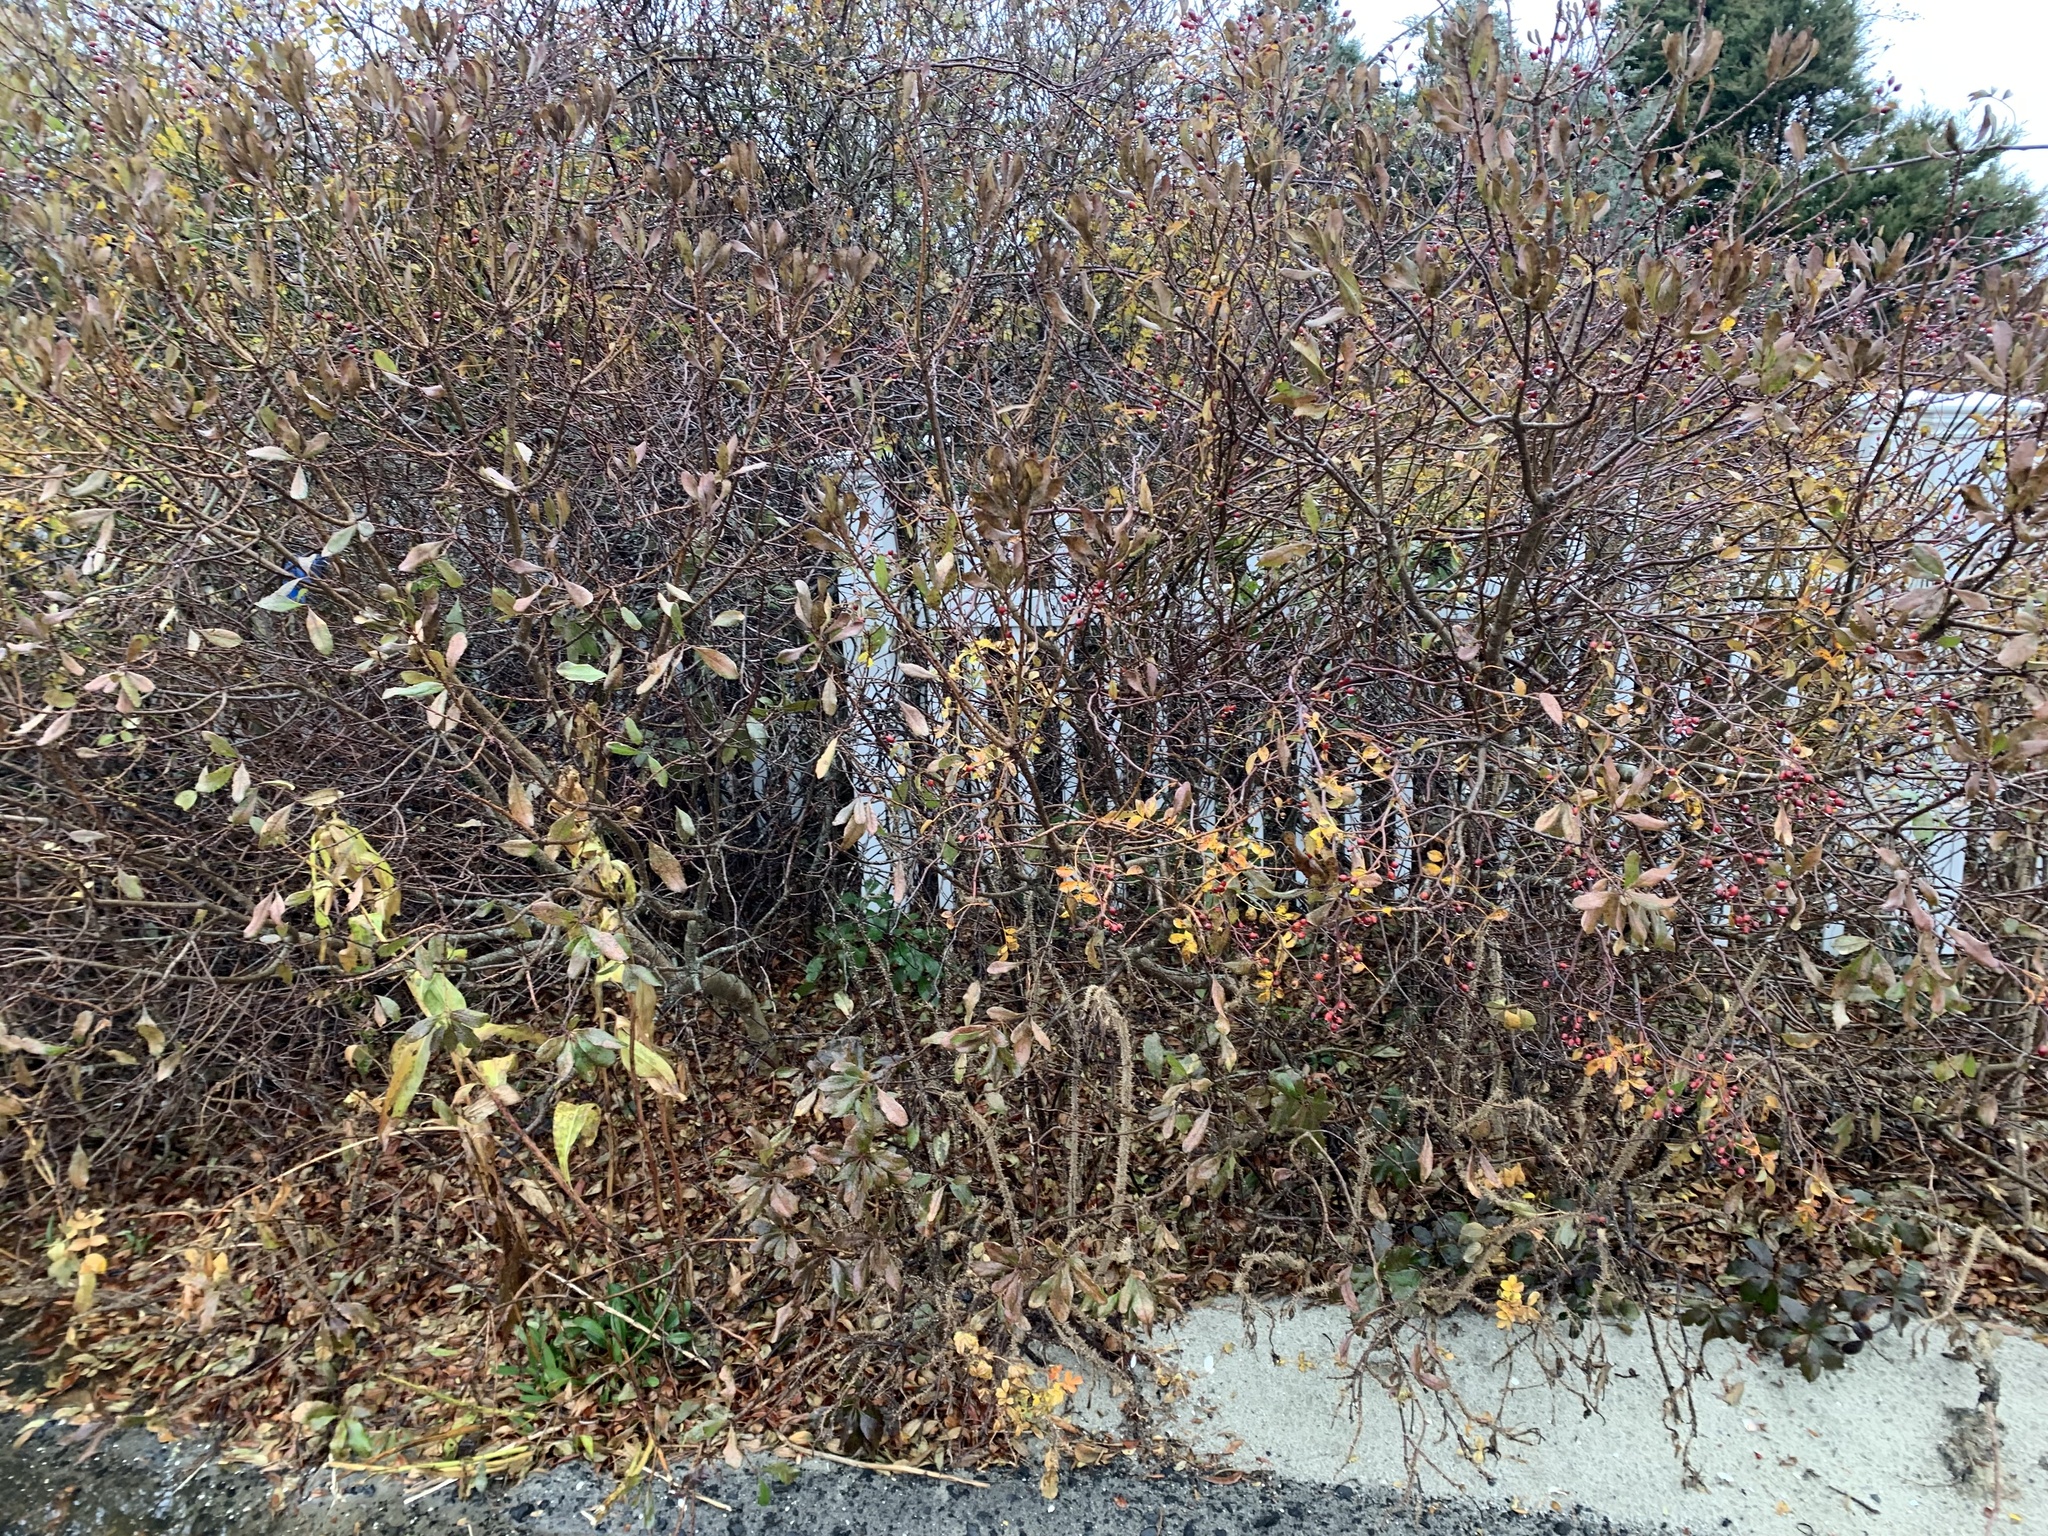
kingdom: Plantae
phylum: Tracheophyta
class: Magnoliopsida
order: Rosales
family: Rosaceae
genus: Rosa
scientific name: Rosa multiflora
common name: Multiflora rose
